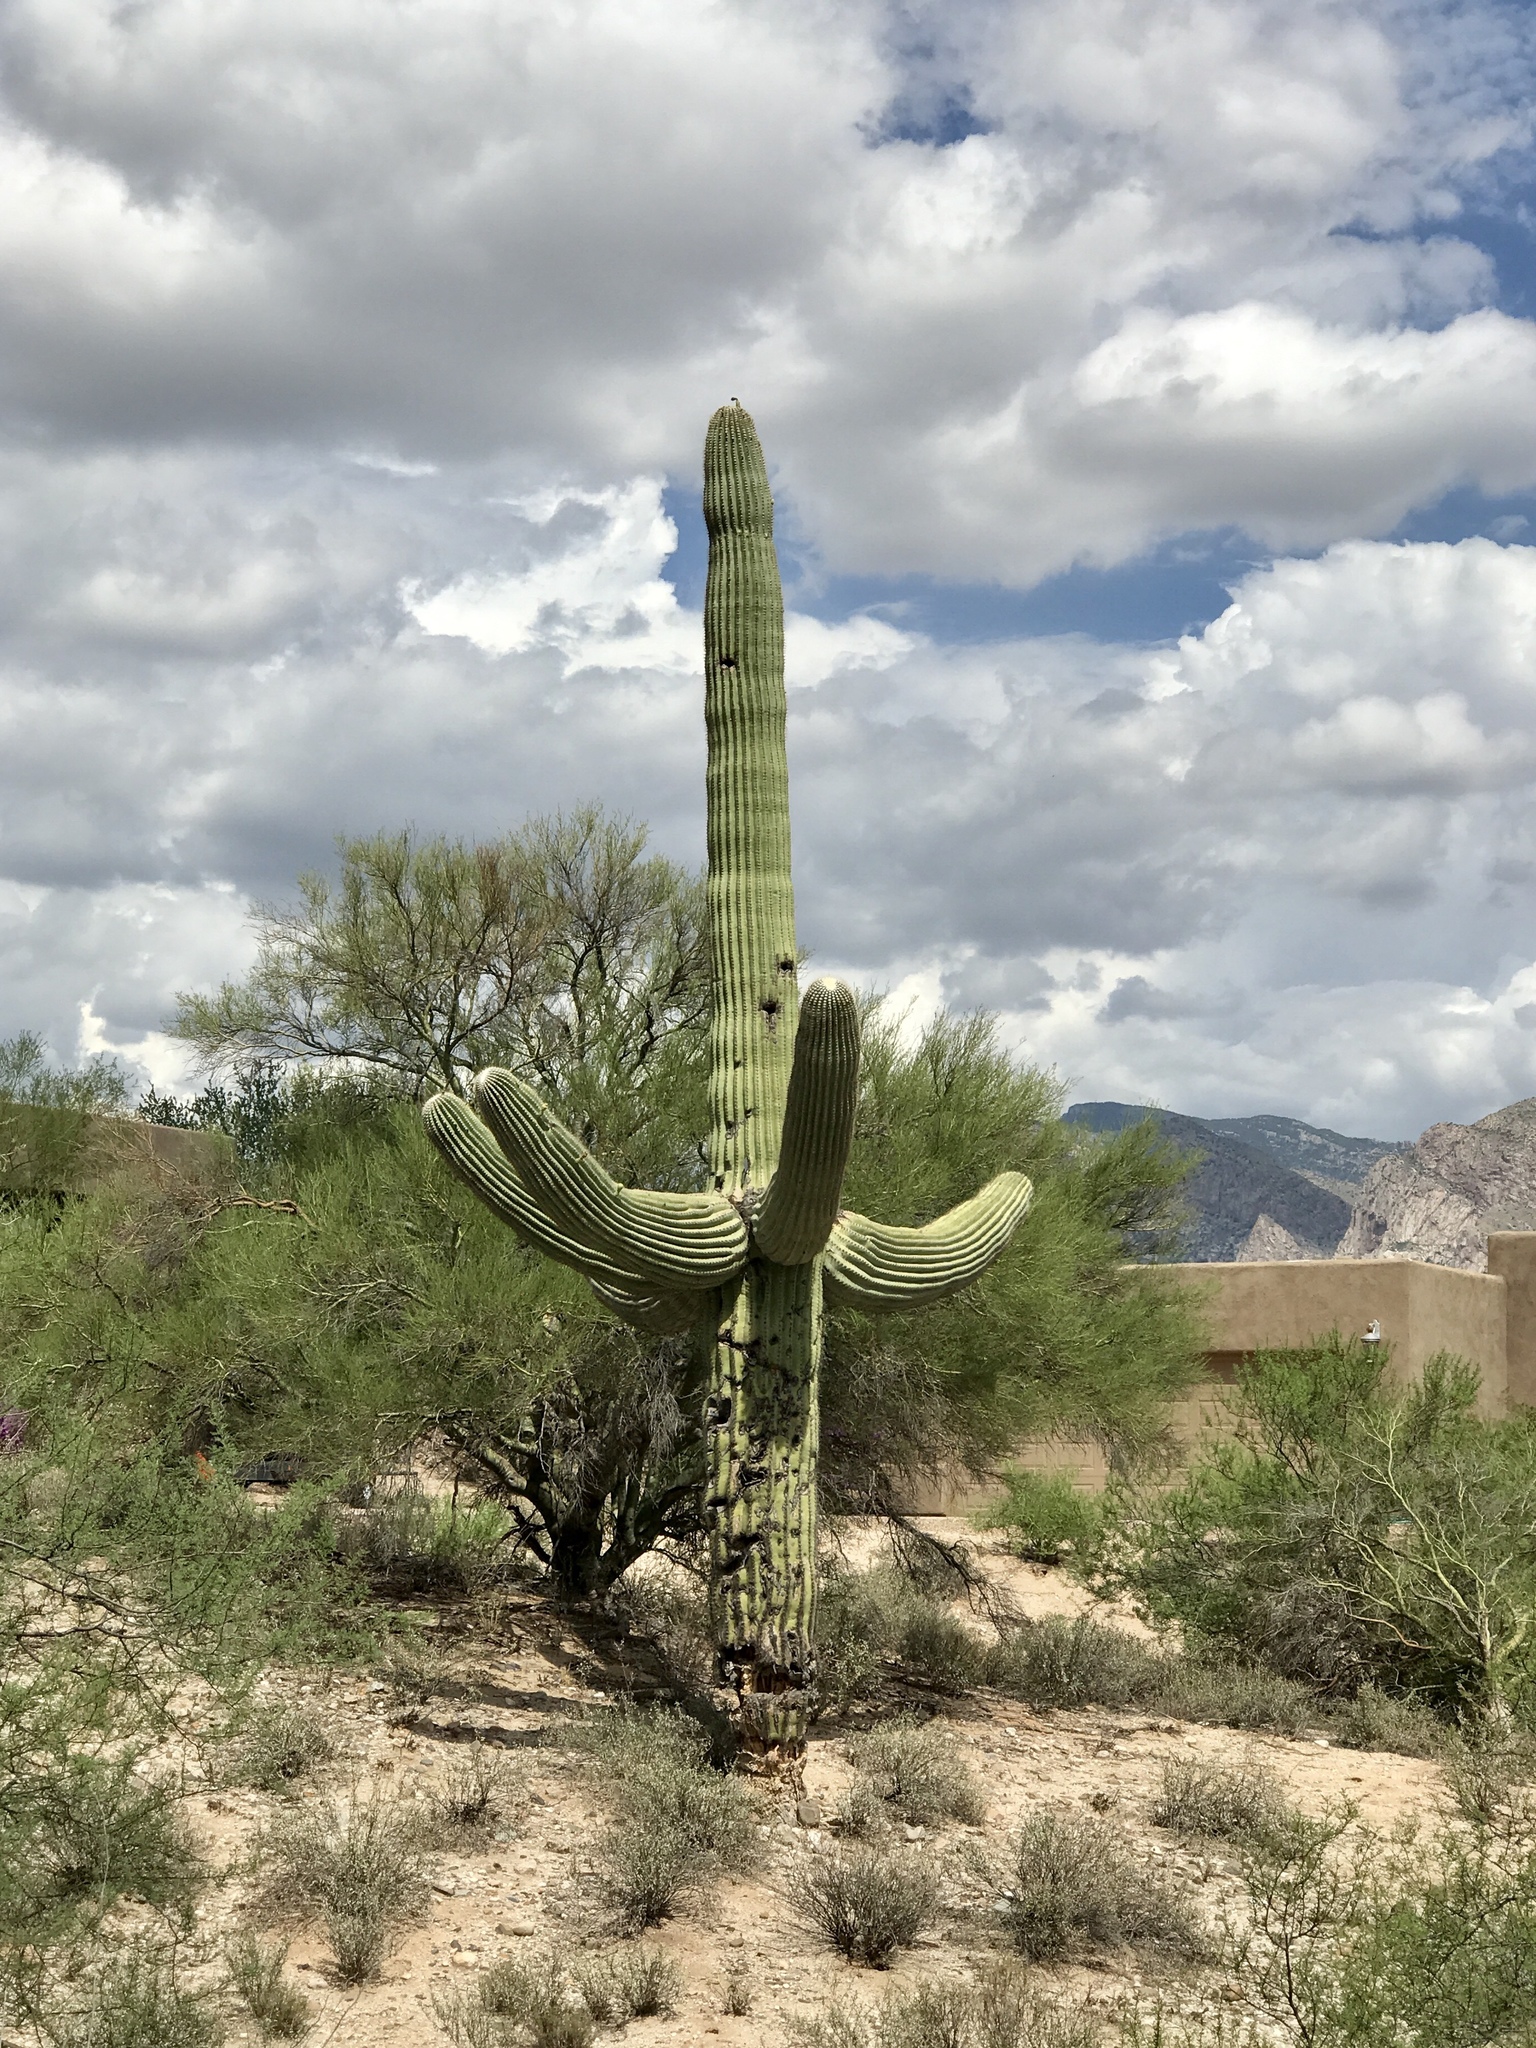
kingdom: Plantae
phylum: Tracheophyta
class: Magnoliopsida
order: Caryophyllales
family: Cactaceae
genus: Carnegiea
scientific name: Carnegiea gigantea
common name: Saguaro
